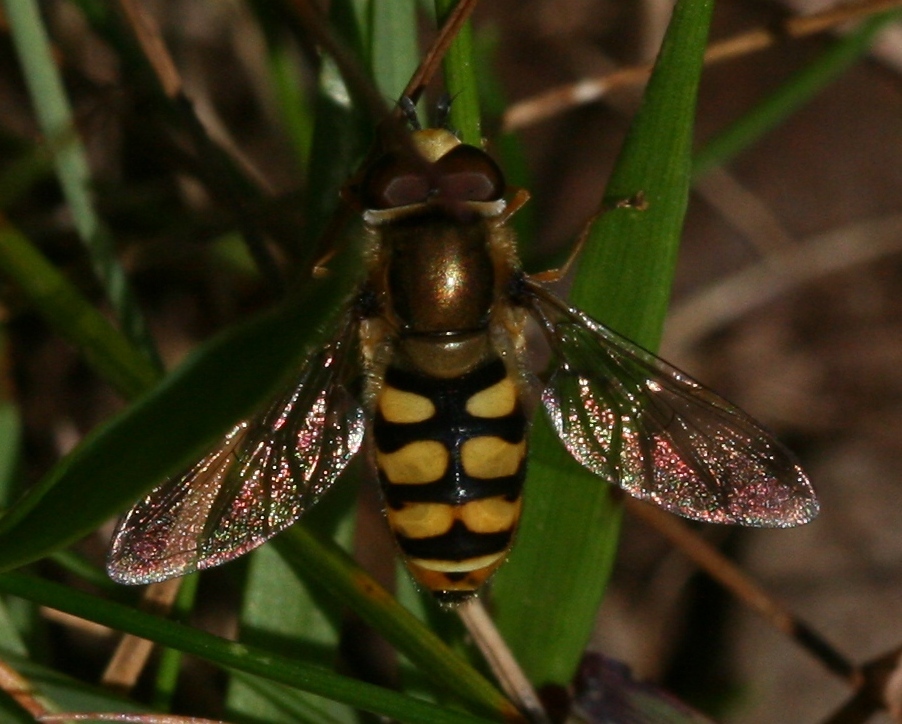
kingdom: Animalia
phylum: Arthropoda
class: Insecta
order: Diptera
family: Syrphidae
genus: Eupeodes
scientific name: Eupeodes corollae
